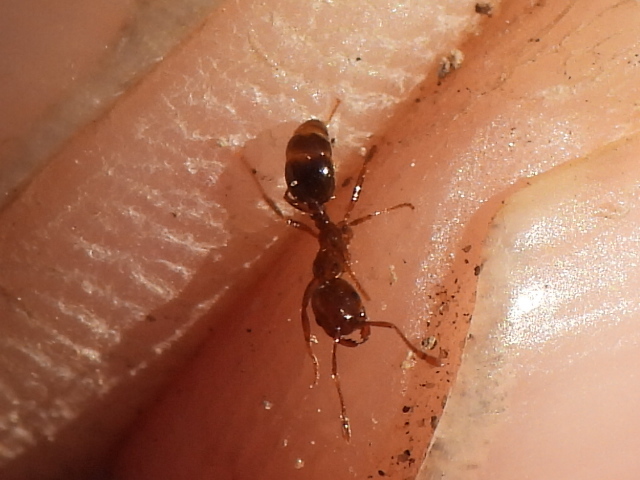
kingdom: Animalia
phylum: Arthropoda
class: Insecta
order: Hymenoptera
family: Formicidae
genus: Solenopsis
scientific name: Solenopsis invicta
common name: Red imported fire ant
